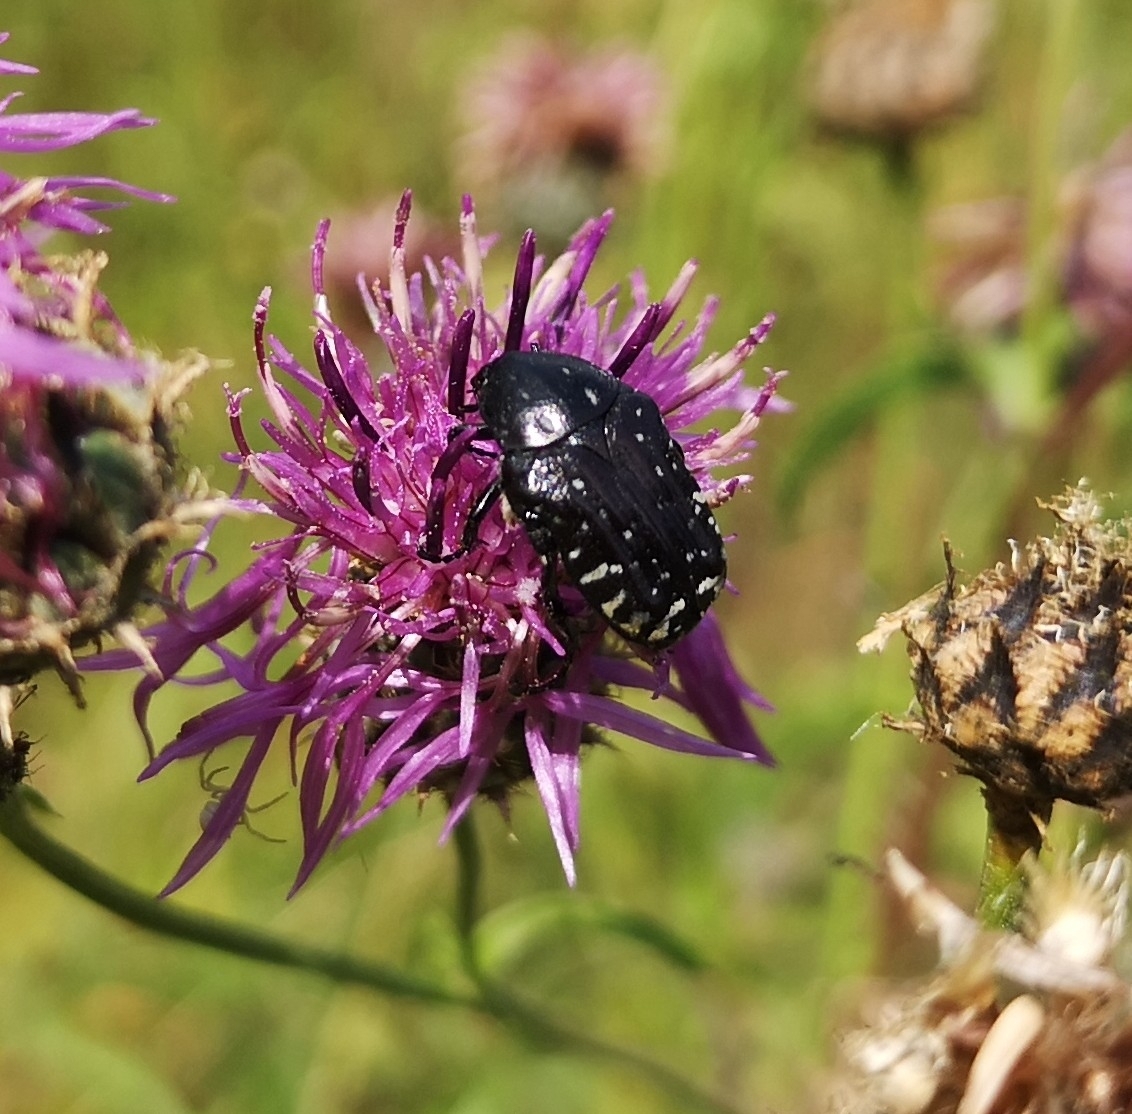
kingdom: Animalia
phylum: Arthropoda
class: Insecta
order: Coleoptera
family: Scarabaeidae
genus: Oxythyrea
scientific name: Oxythyrea funesta
